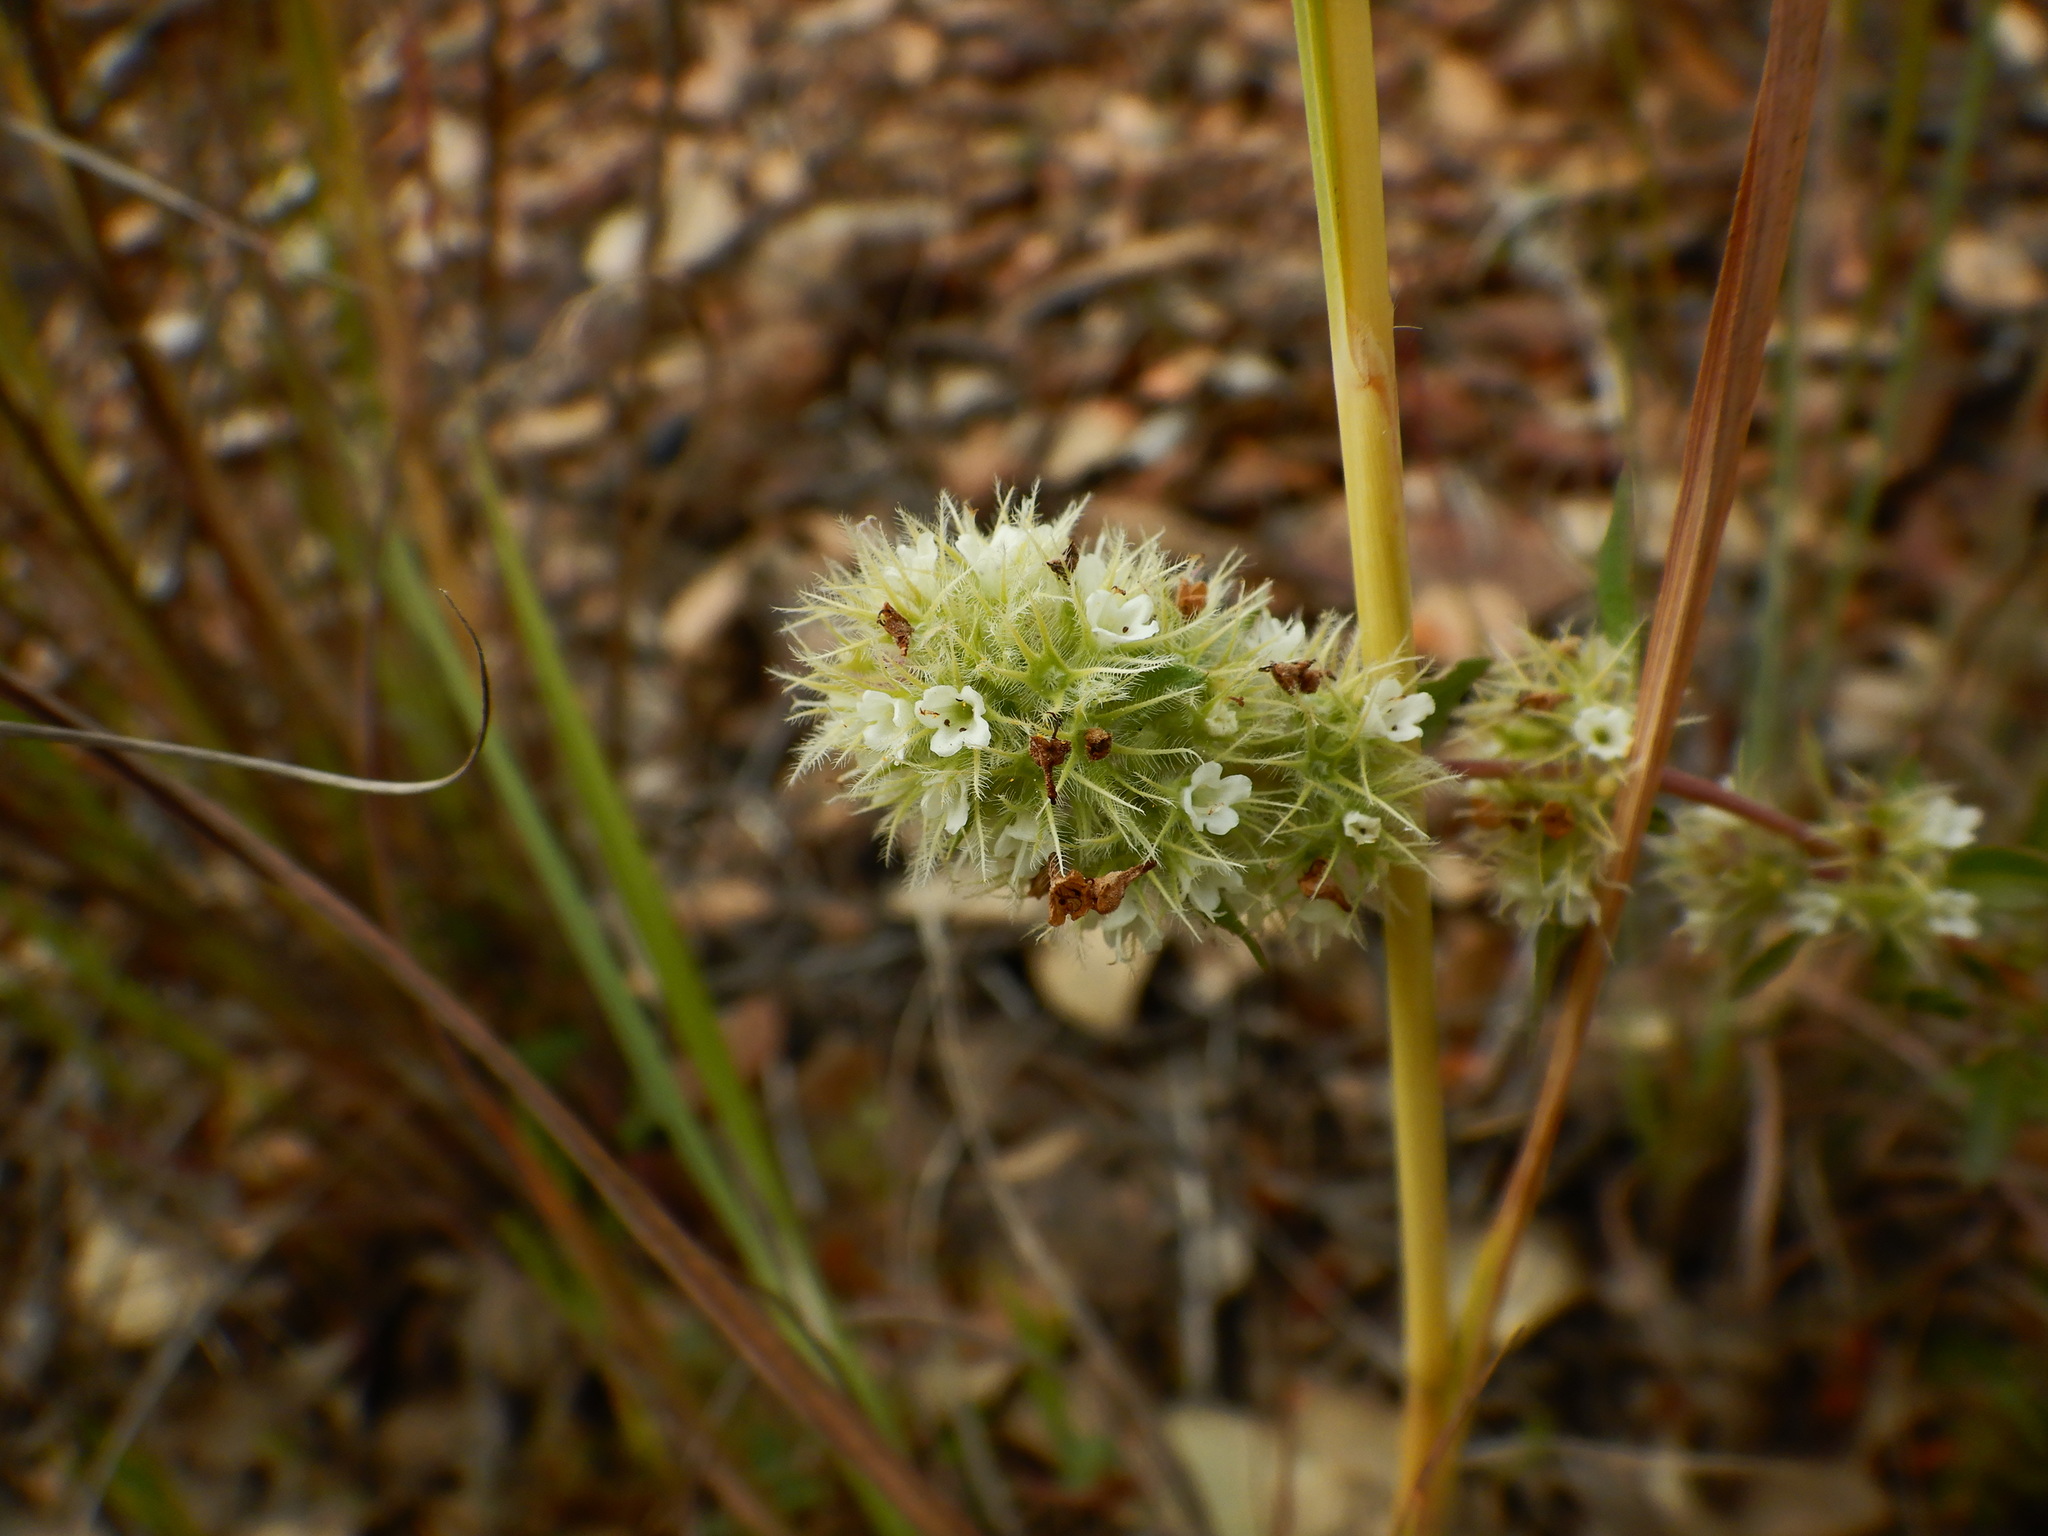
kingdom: Plantae
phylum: Tracheophyta
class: Magnoliopsida
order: Lamiales
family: Lamiaceae
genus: Thymus
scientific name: Thymus mastichina
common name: Mastic thyme
